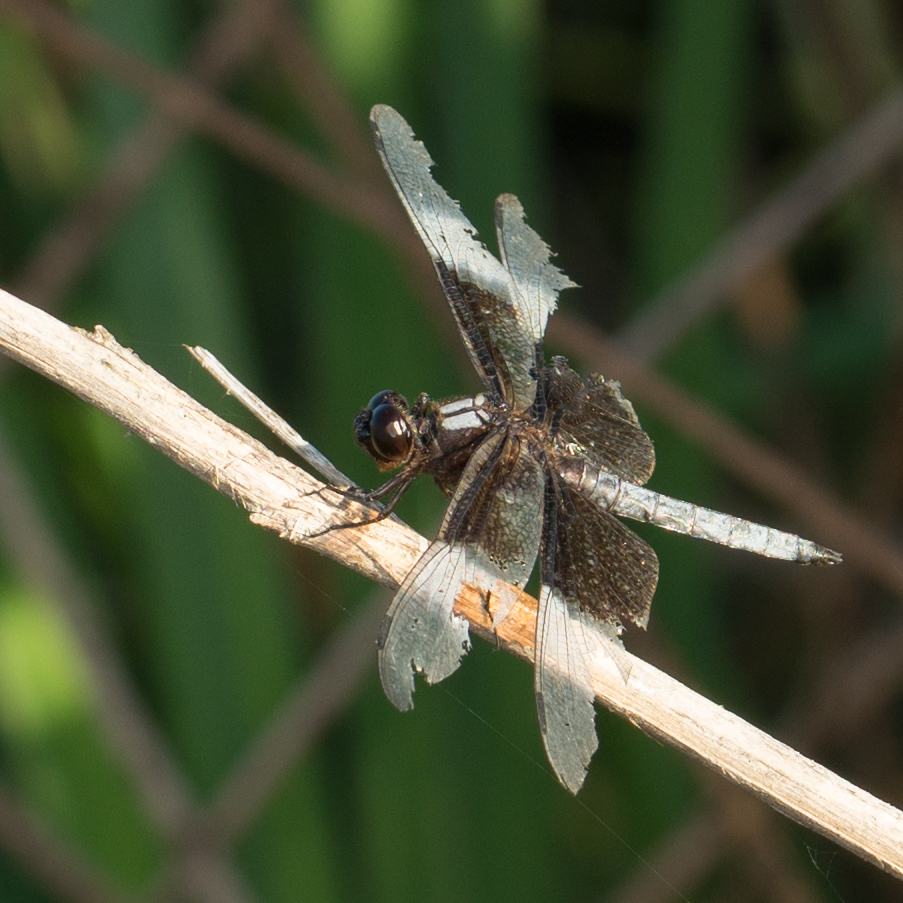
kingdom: Animalia
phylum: Arthropoda
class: Insecta
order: Odonata
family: Libellulidae
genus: Libellula
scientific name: Libellula luctuosa
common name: Widow skimmer
